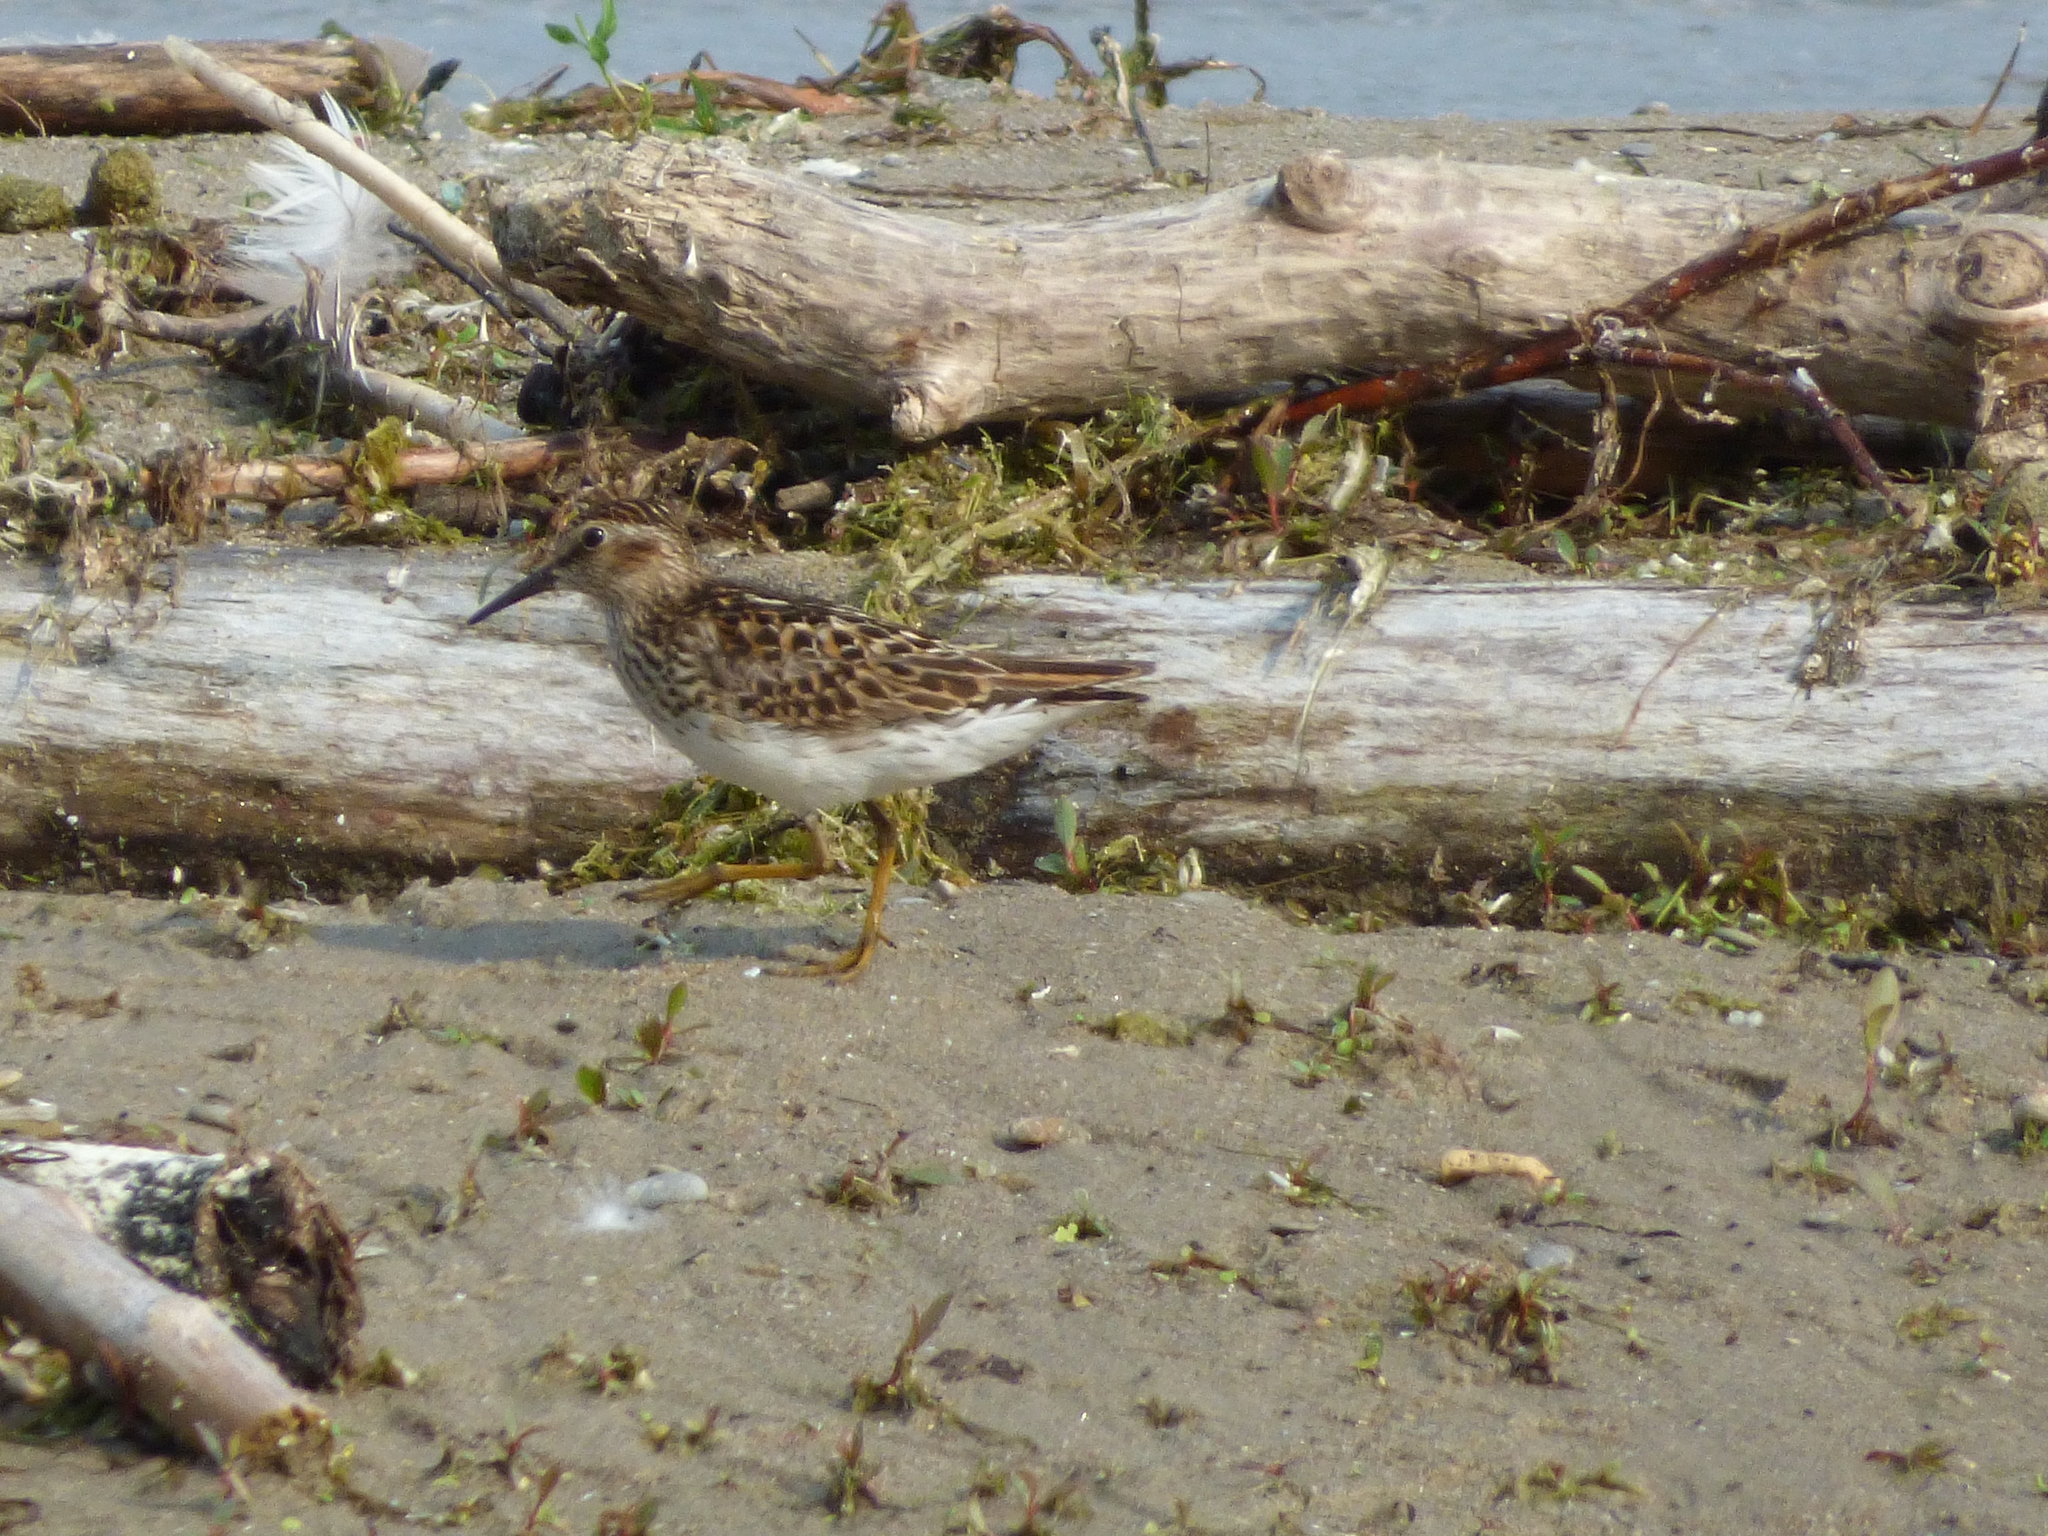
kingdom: Animalia
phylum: Chordata
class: Aves
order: Charadriiformes
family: Scolopacidae
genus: Calidris
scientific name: Calidris minutilla
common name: Least sandpiper
